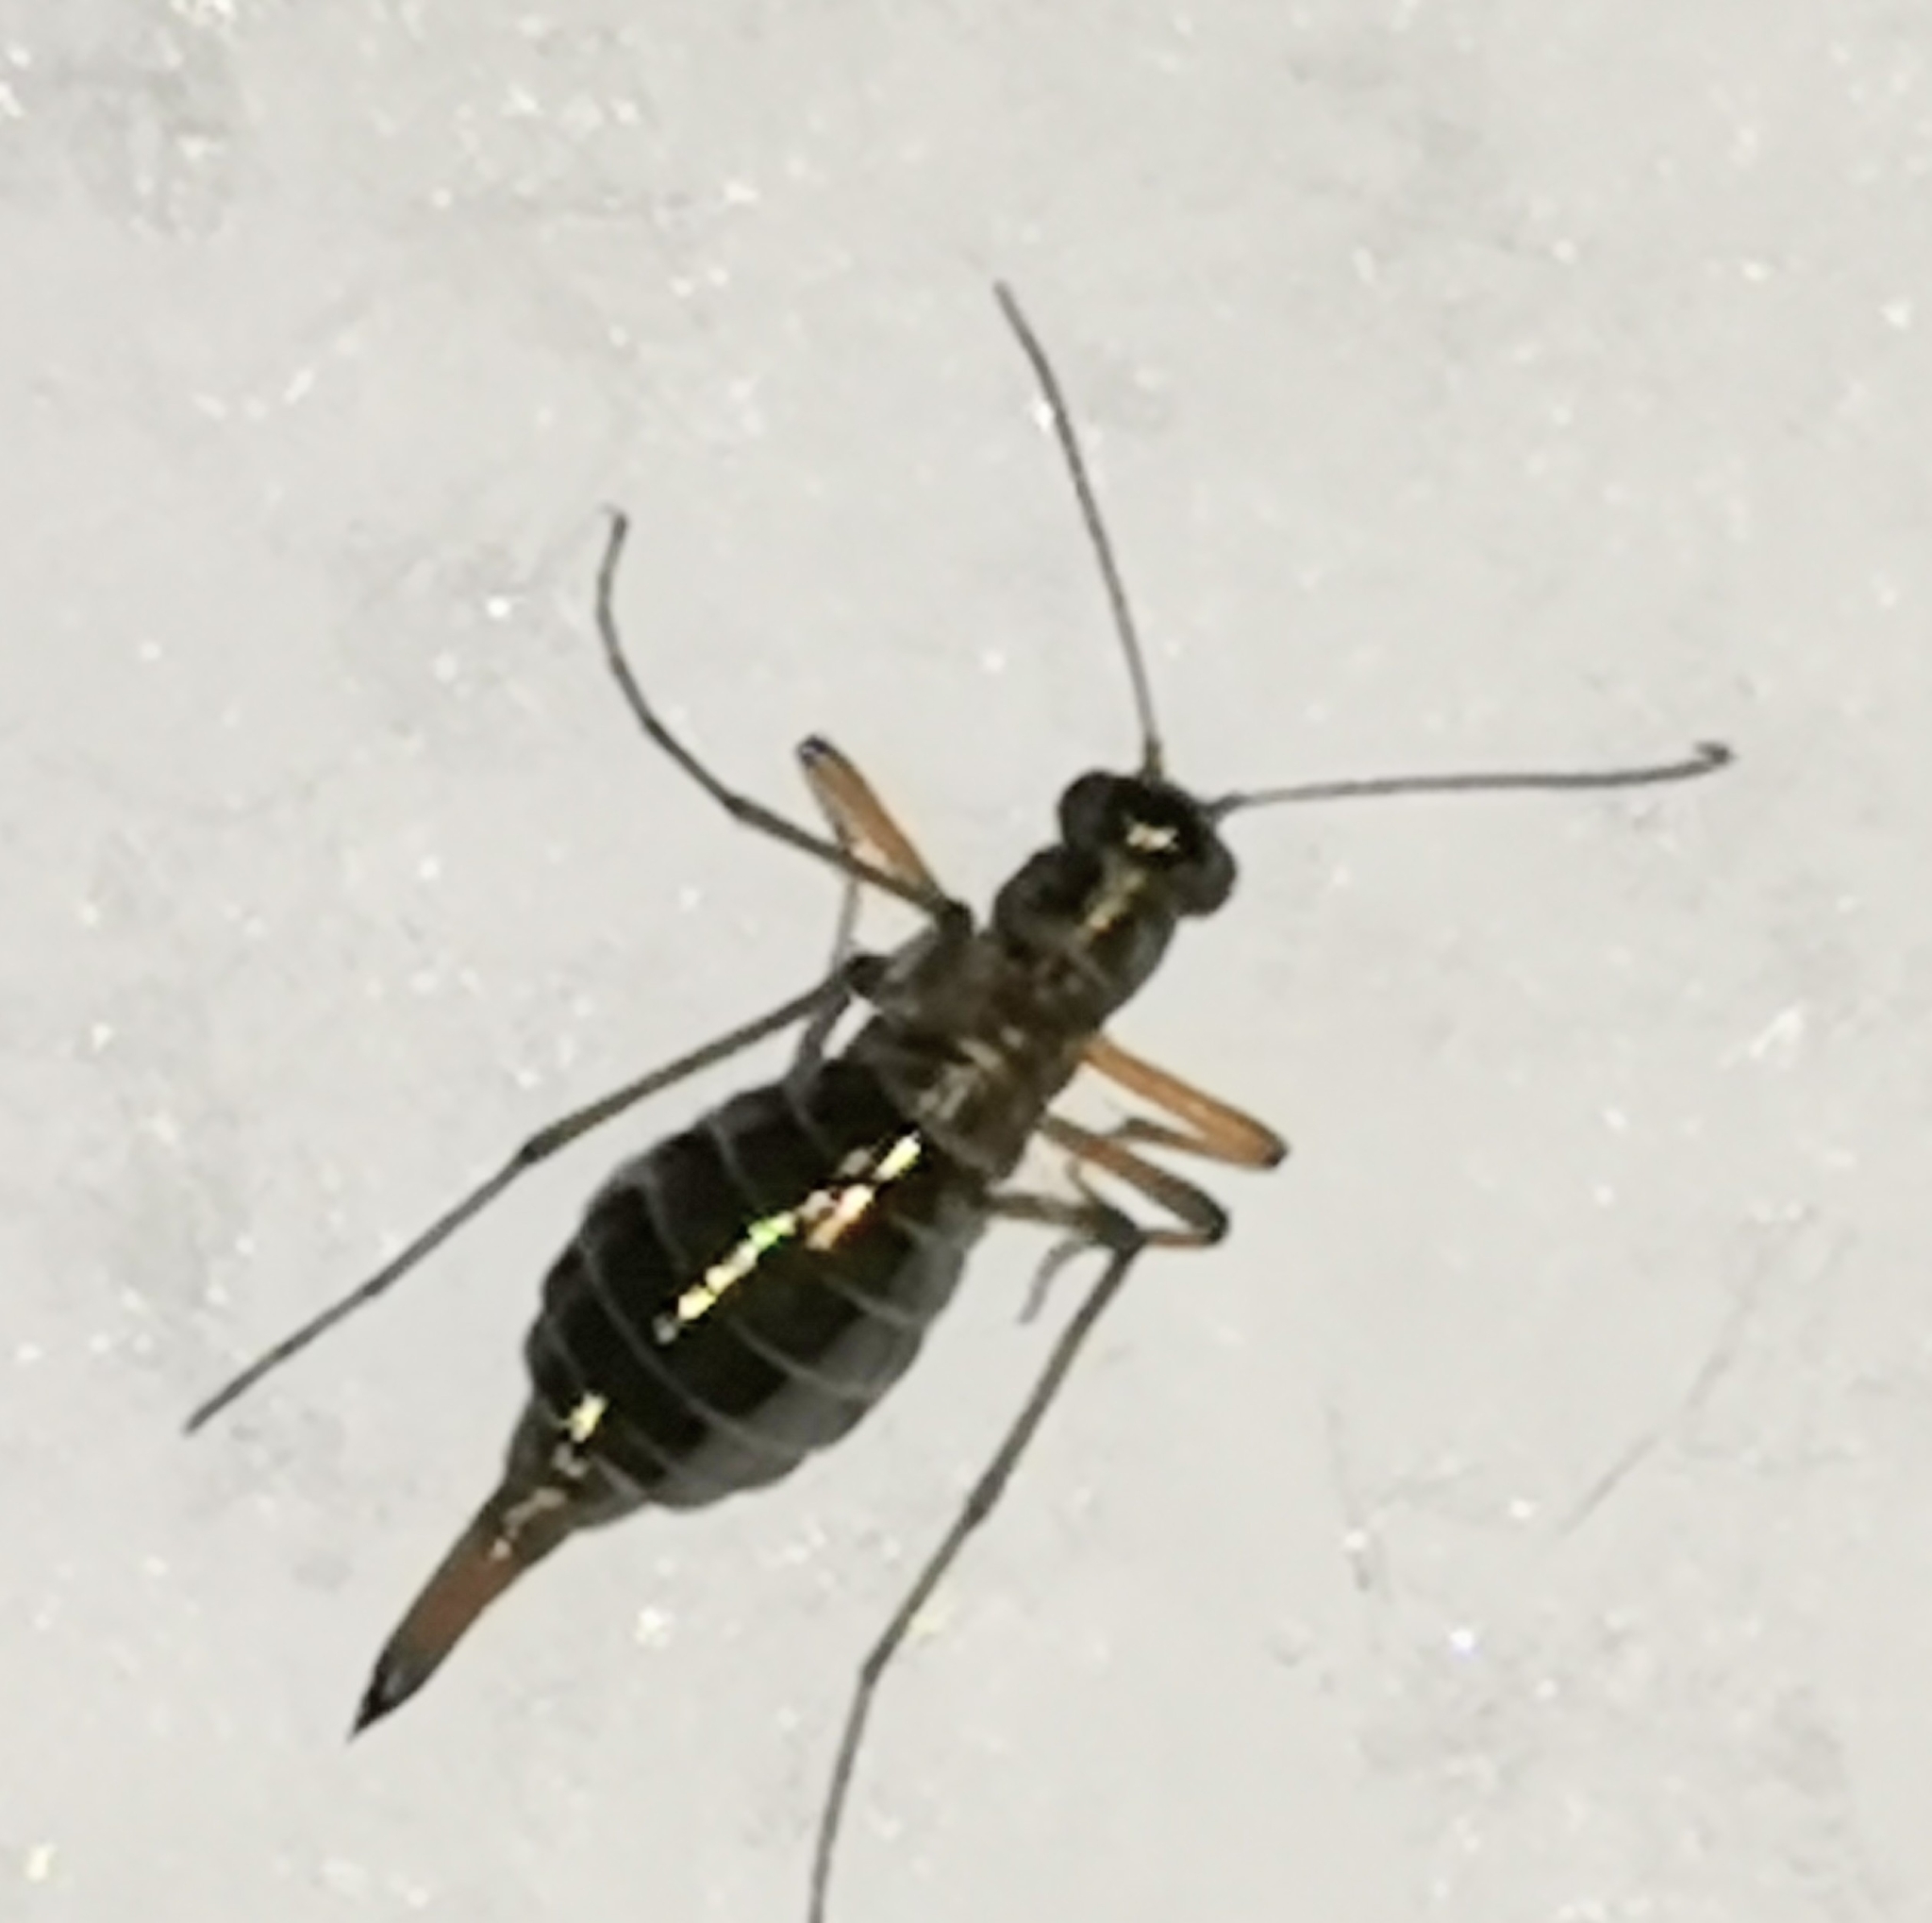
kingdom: Animalia
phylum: Arthropoda
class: Insecta
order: Mecoptera
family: Boreidae
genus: Boreus
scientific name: Boreus westwoodi
